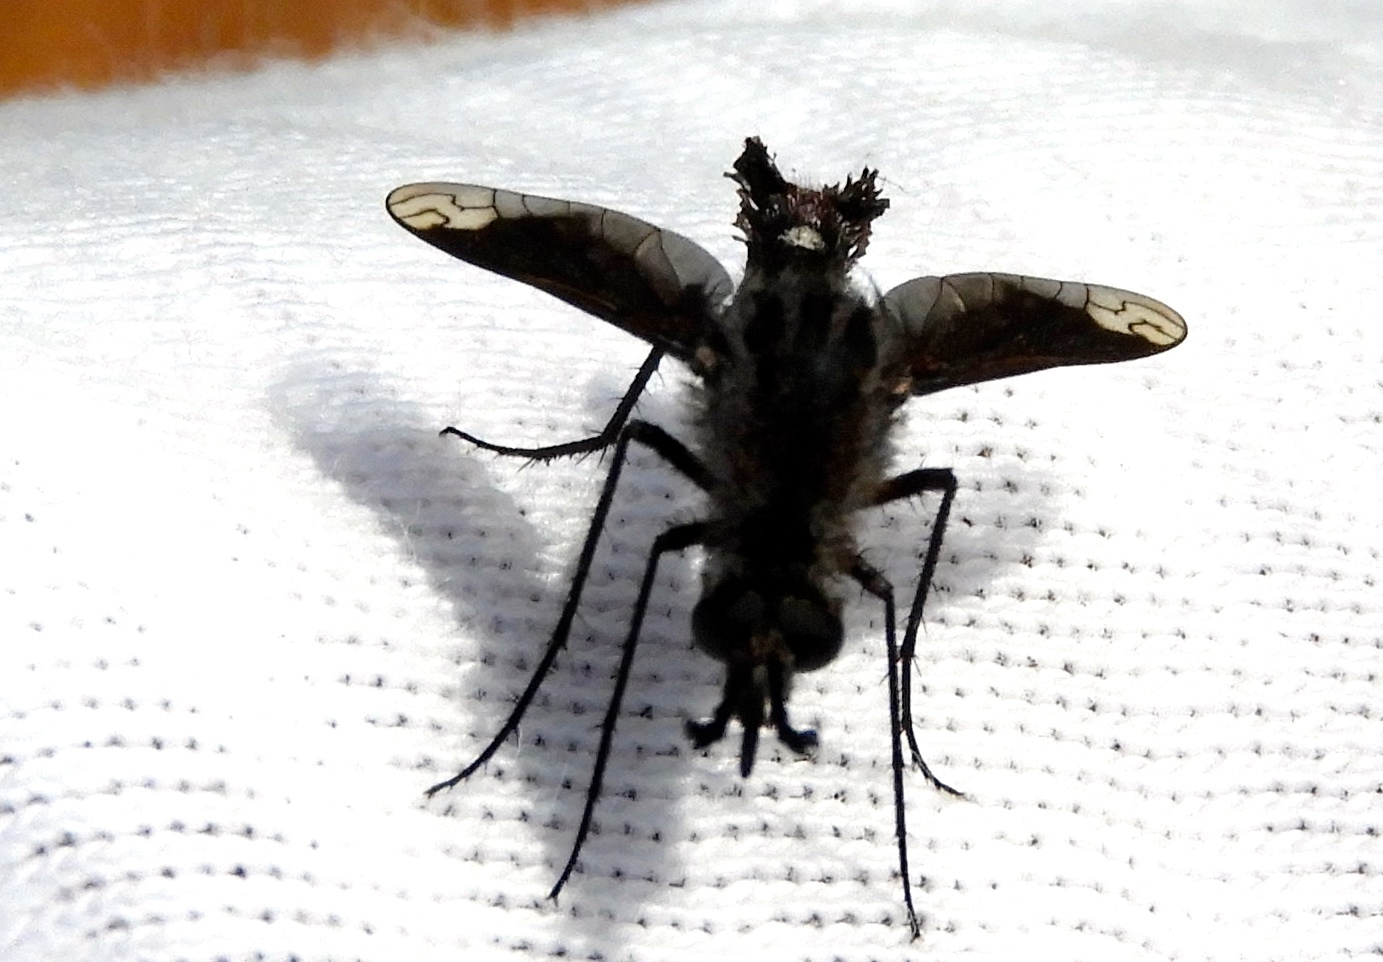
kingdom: Animalia
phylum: Arthropoda
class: Insecta
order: Diptera
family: Bombyliidae
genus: Lepidophora
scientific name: Lepidophora vetusta
